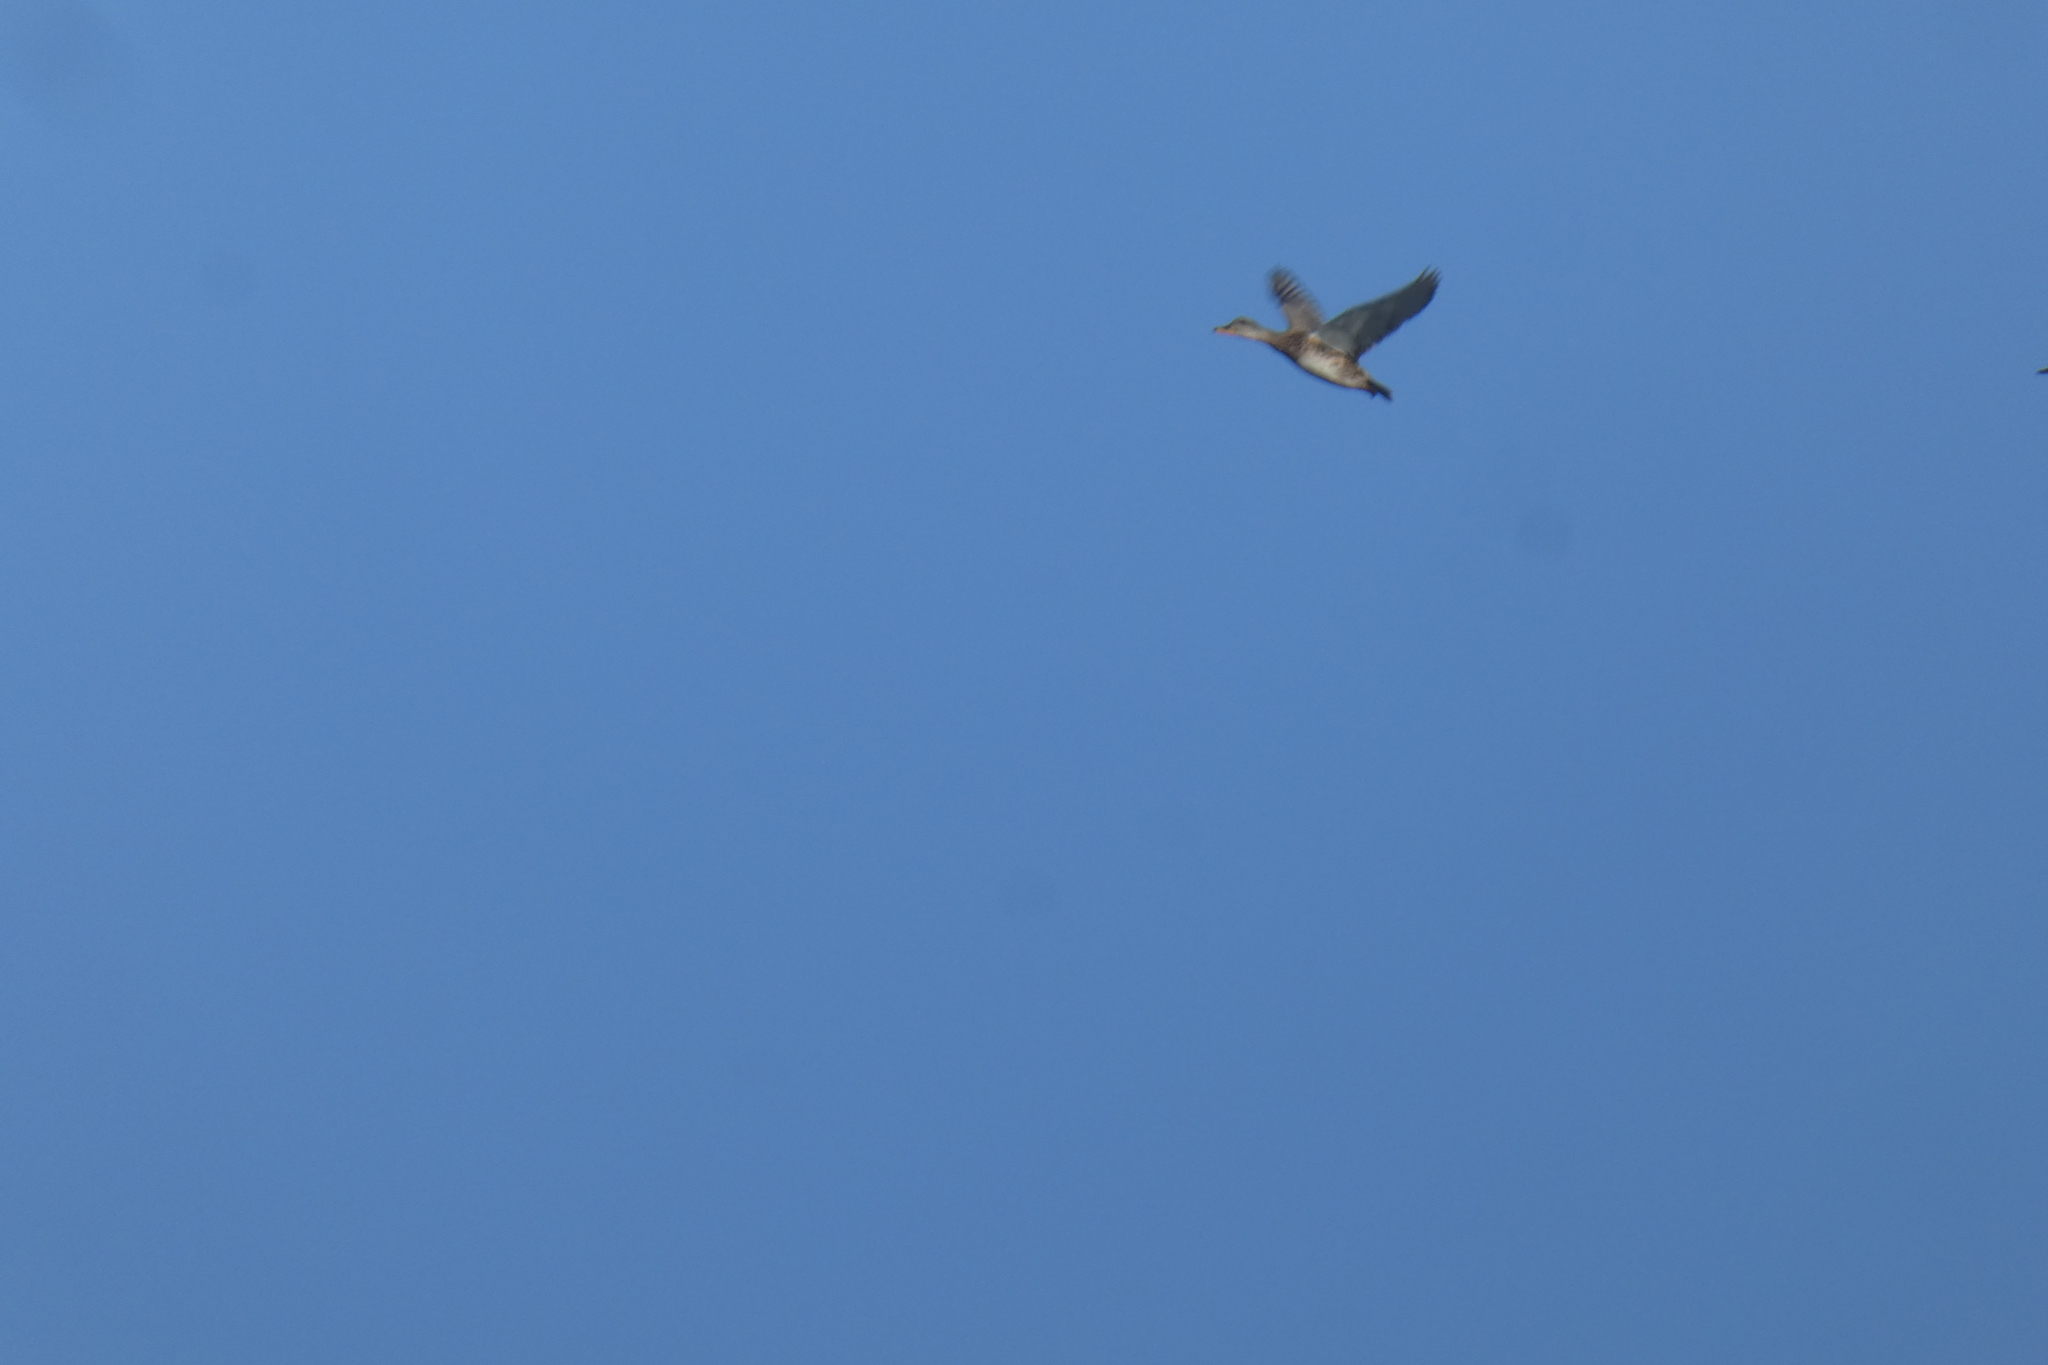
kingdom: Animalia
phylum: Chordata
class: Aves
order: Anseriformes
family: Anatidae
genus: Mareca
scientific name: Mareca strepera
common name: Gadwall
